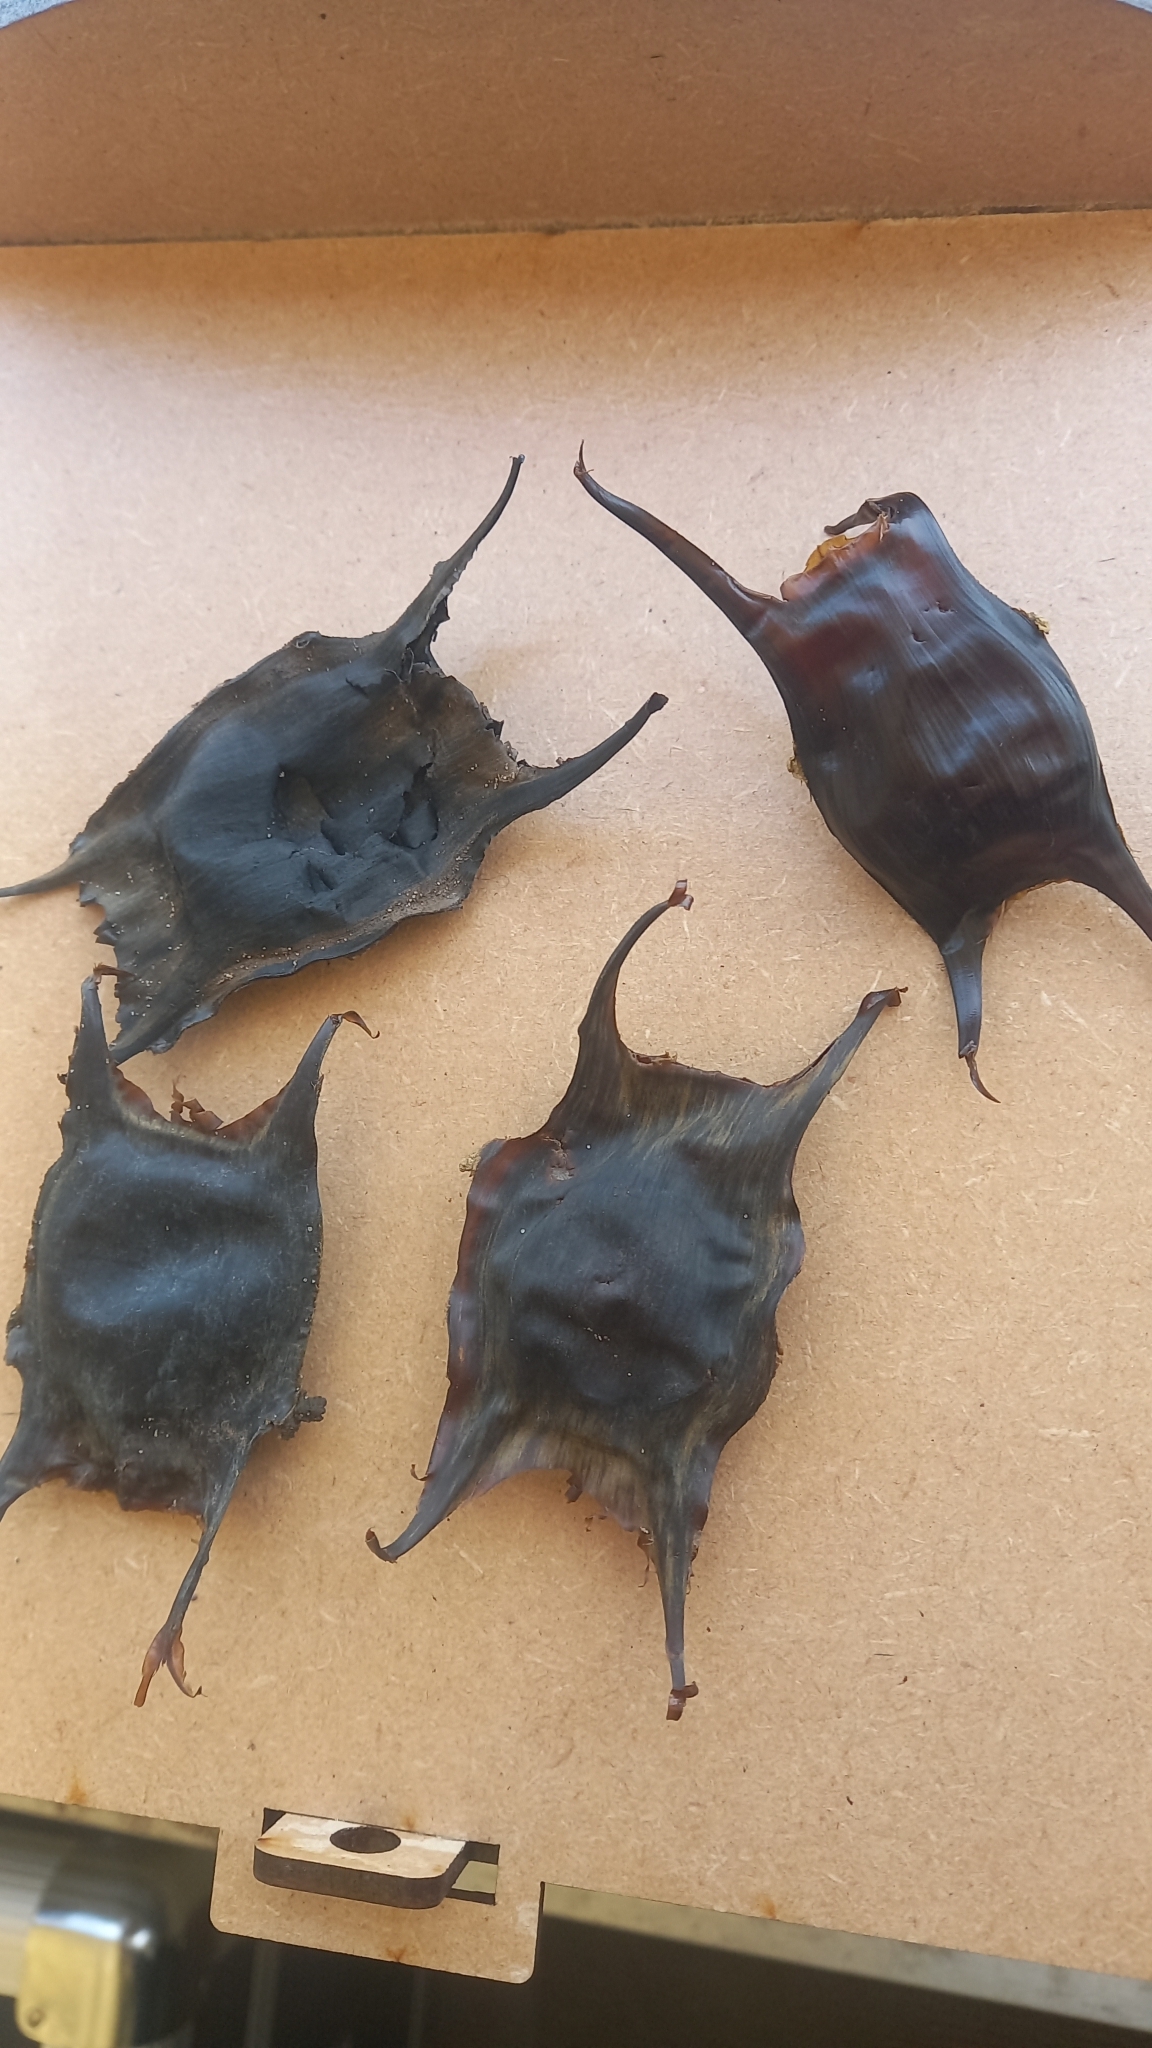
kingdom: Animalia
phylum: Chordata
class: Elasmobranchii
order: Rajiformes
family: Rajidae
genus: Raja
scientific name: Raja montagui
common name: Spotted ray
